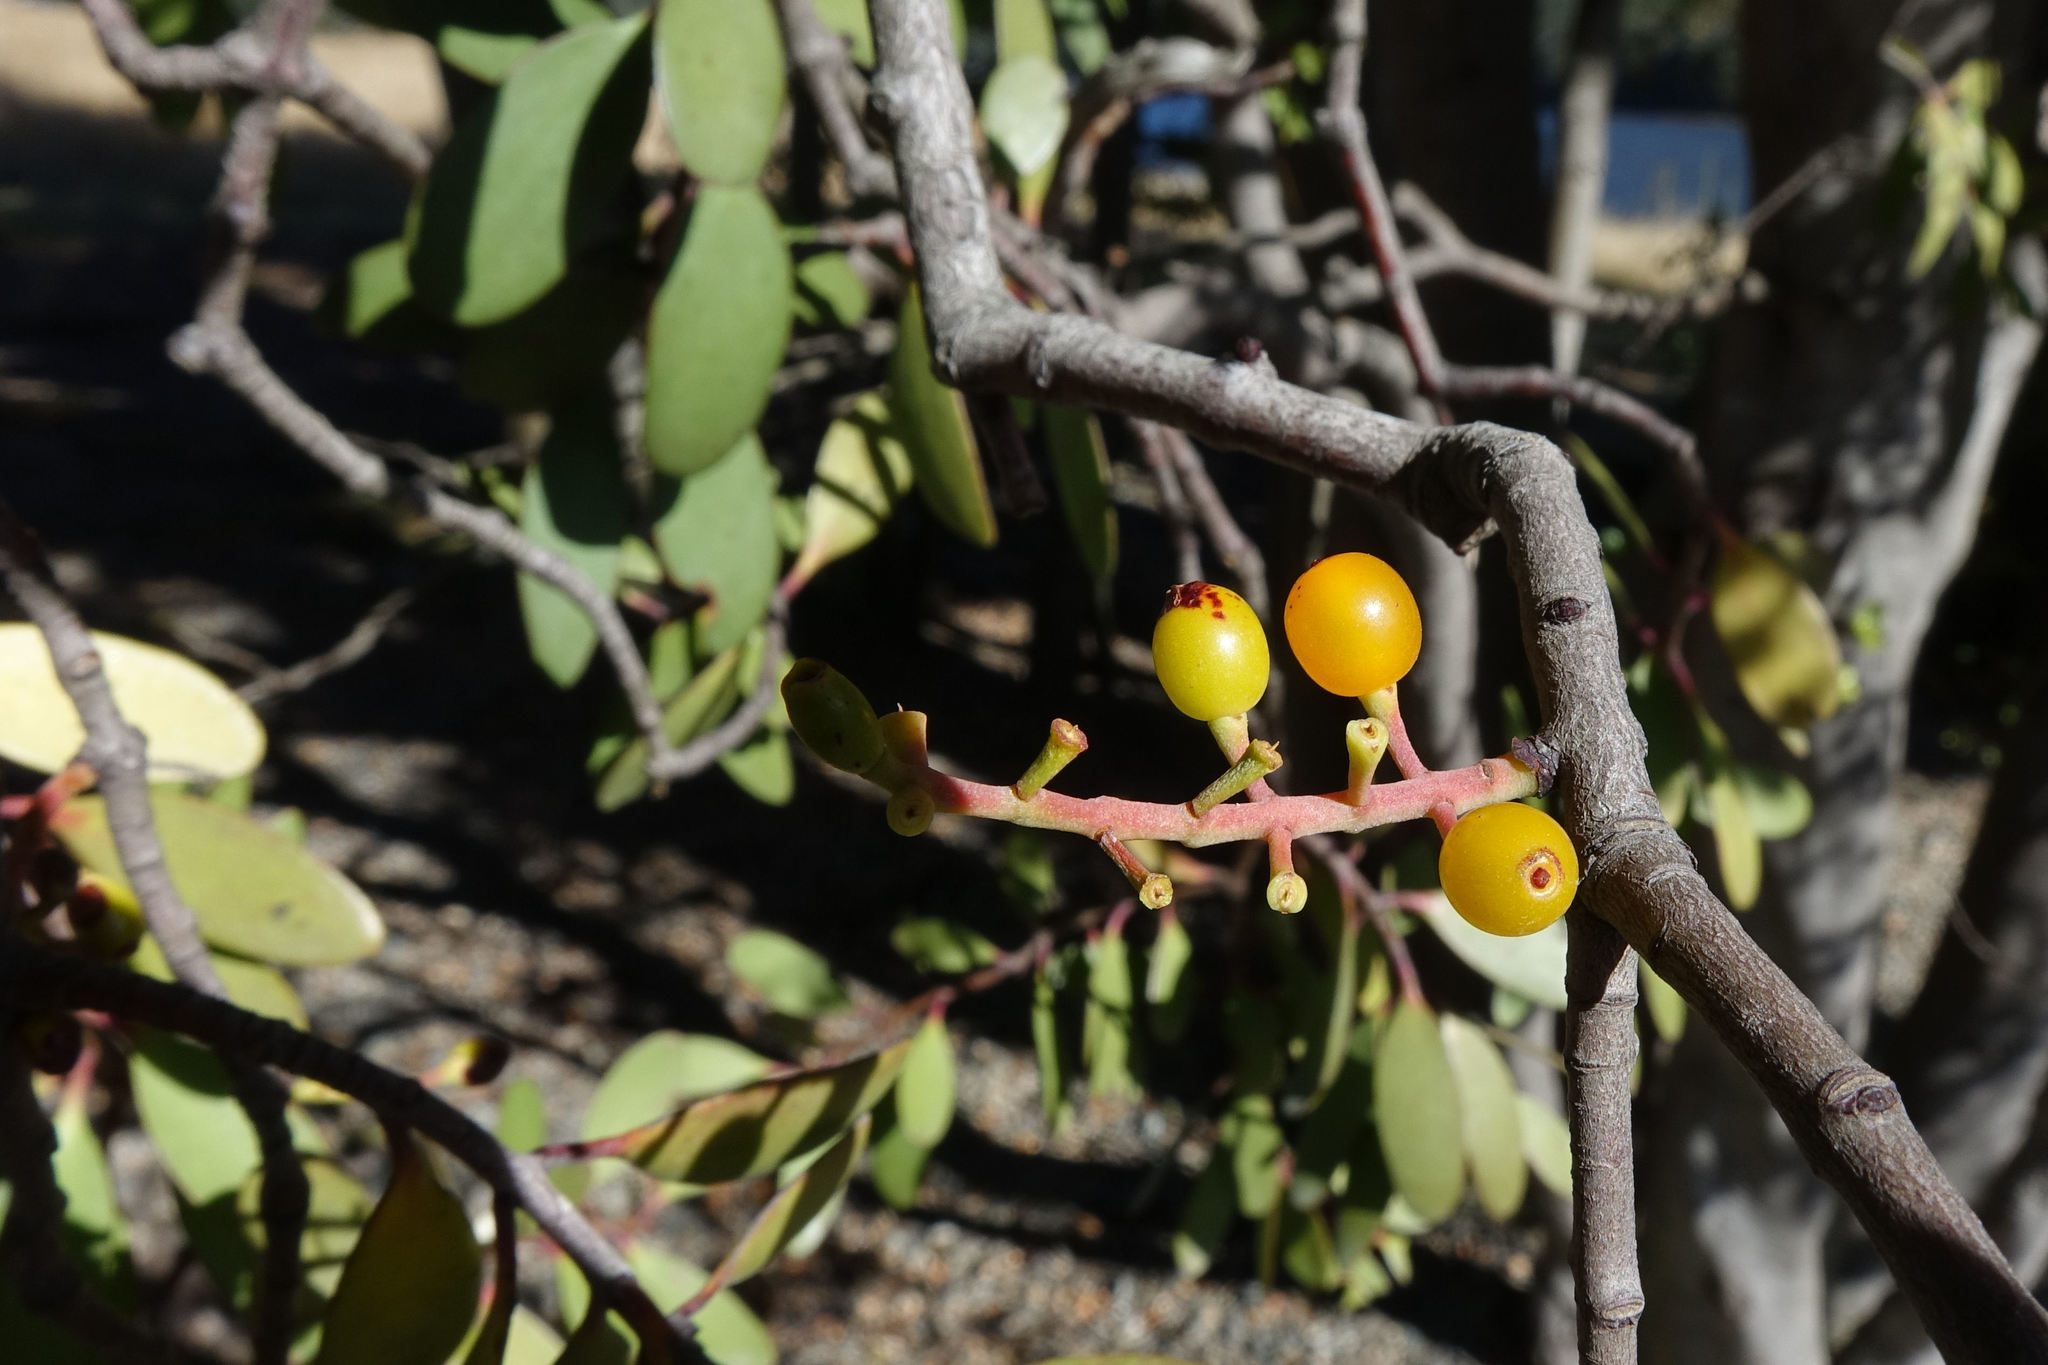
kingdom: Plantae
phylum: Tracheophyta
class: Magnoliopsida
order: Santalales
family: Loranthaceae
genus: Alepis
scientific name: Alepis flavida
